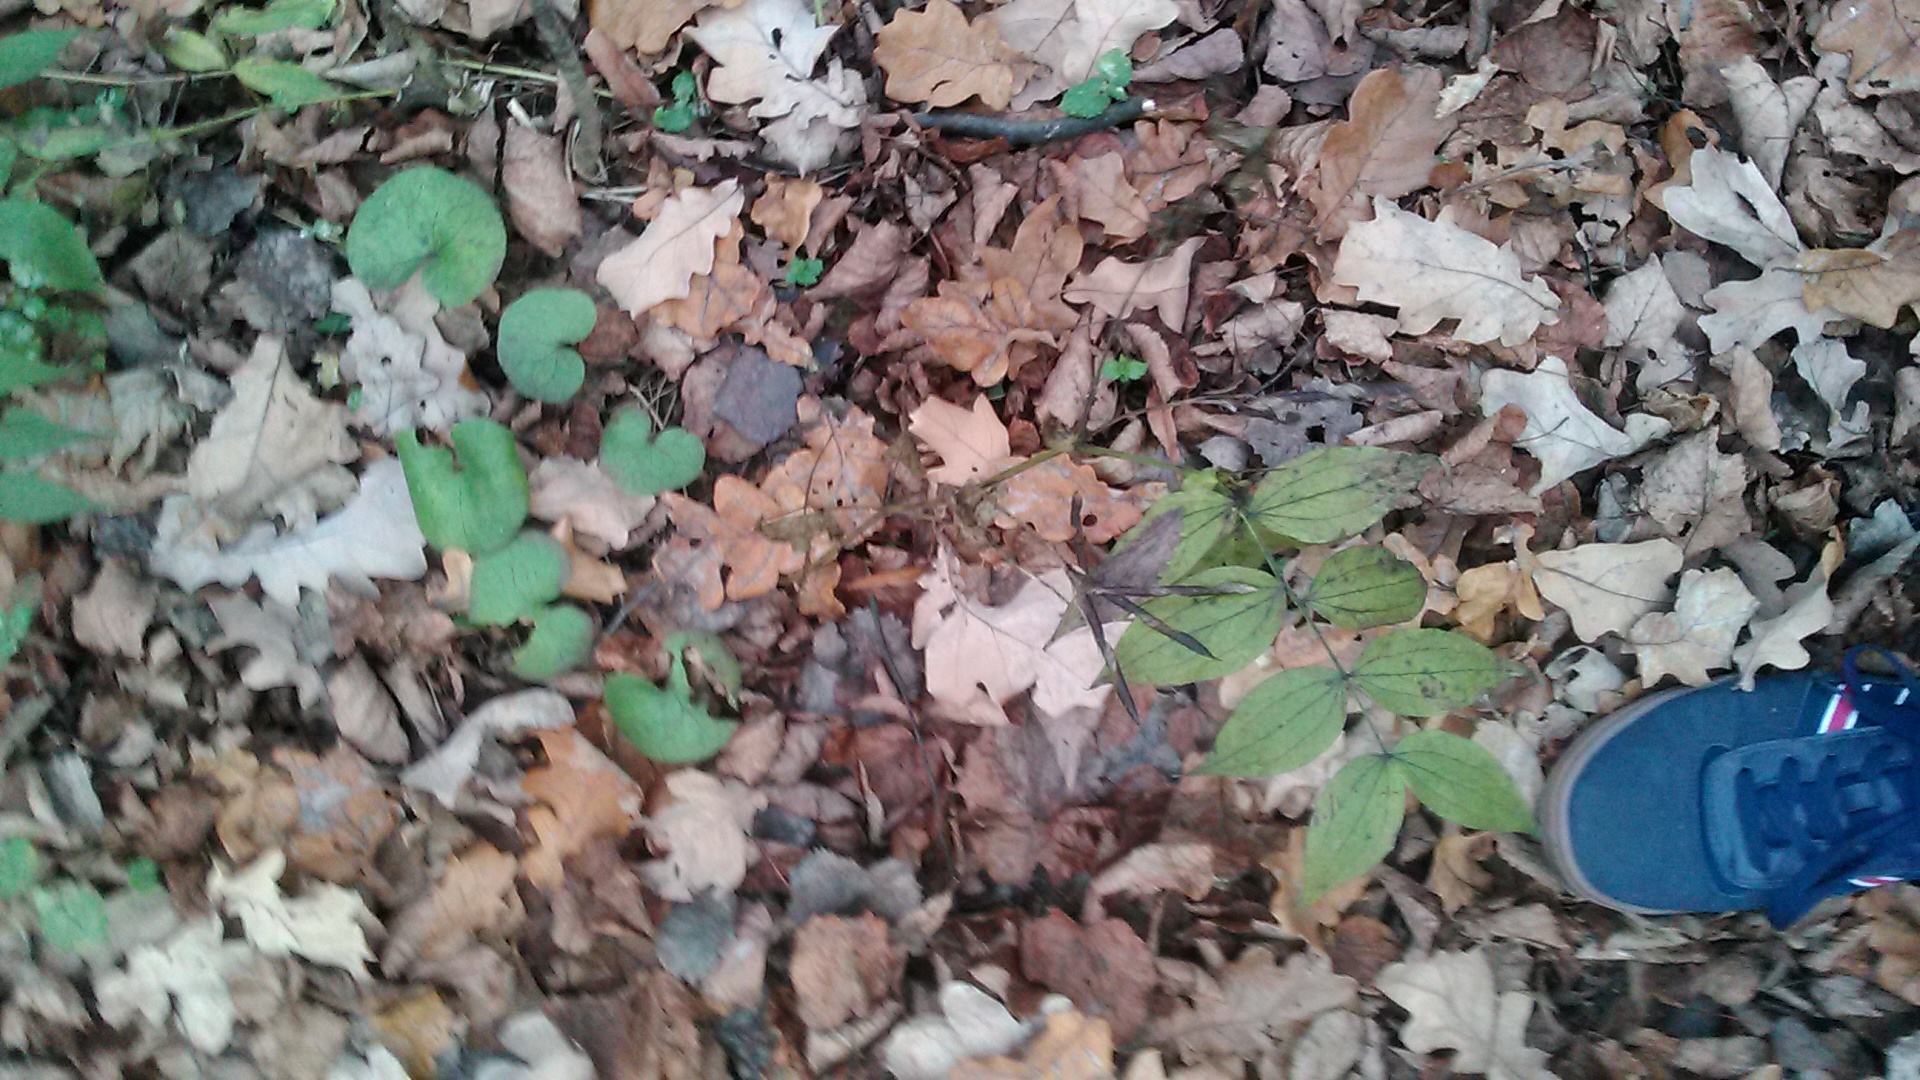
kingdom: Plantae
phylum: Tracheophyta
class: Magnoliopsida
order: Fabales
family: Fabaceae
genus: Lathyrus
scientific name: Lathyrus vernus
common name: Spring pea
